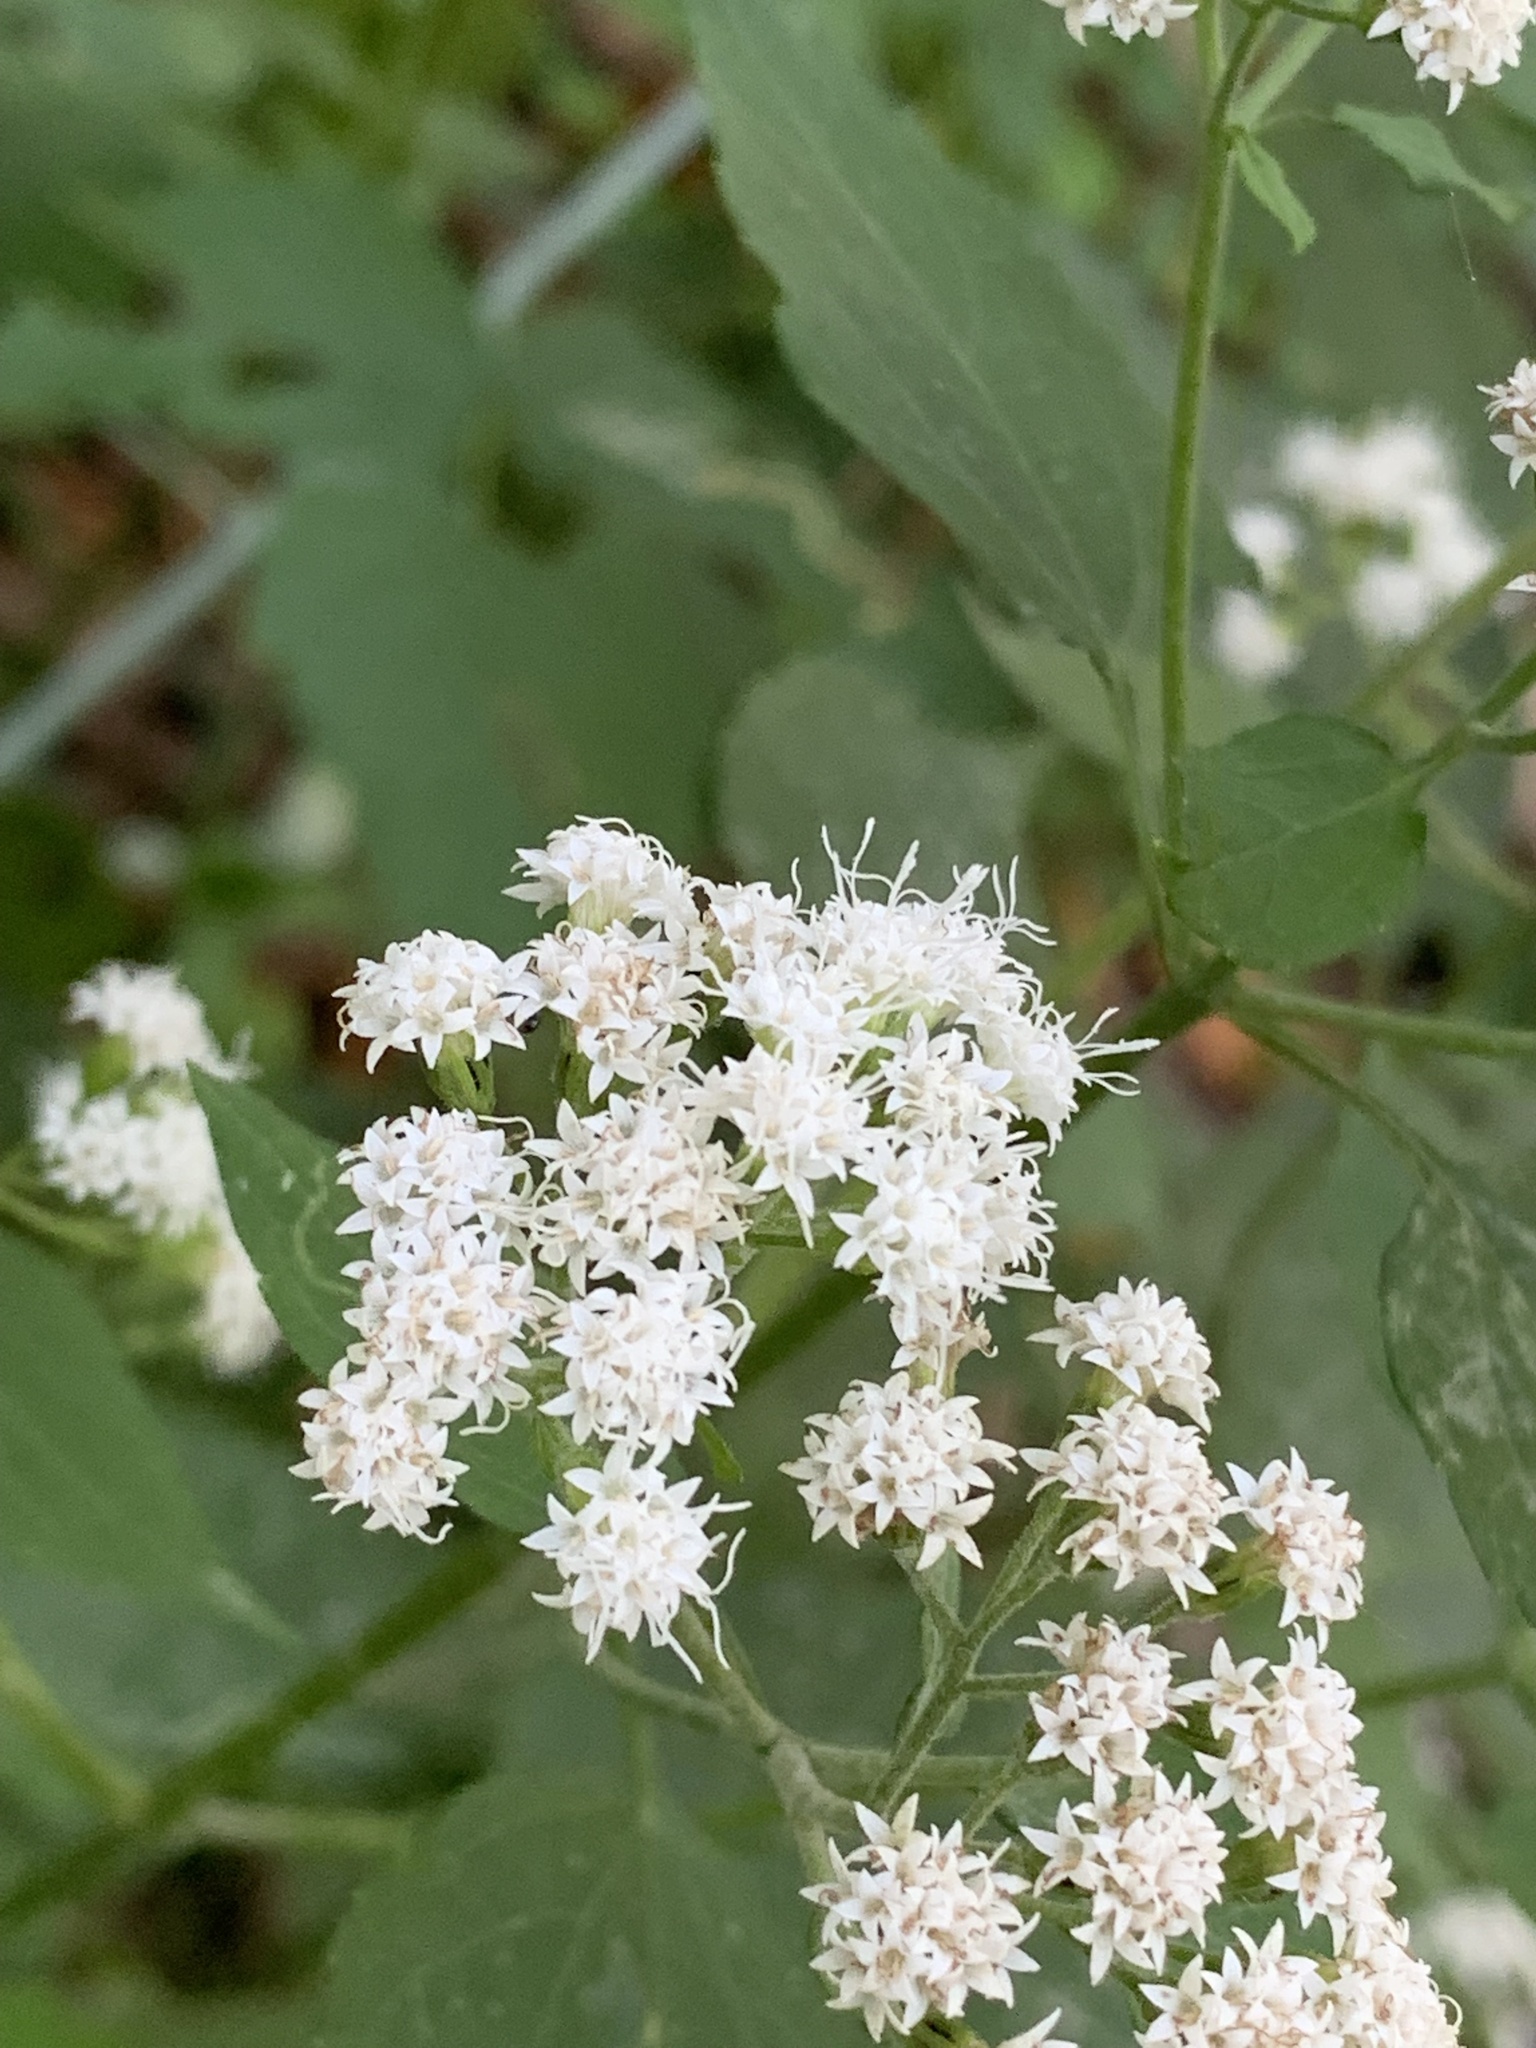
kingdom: Plantae
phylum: Tracheophyta
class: Magnoliopsida
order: Asterales
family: Asteraceae
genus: Ageratina
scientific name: Ageratina altissima
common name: White snakeroot
